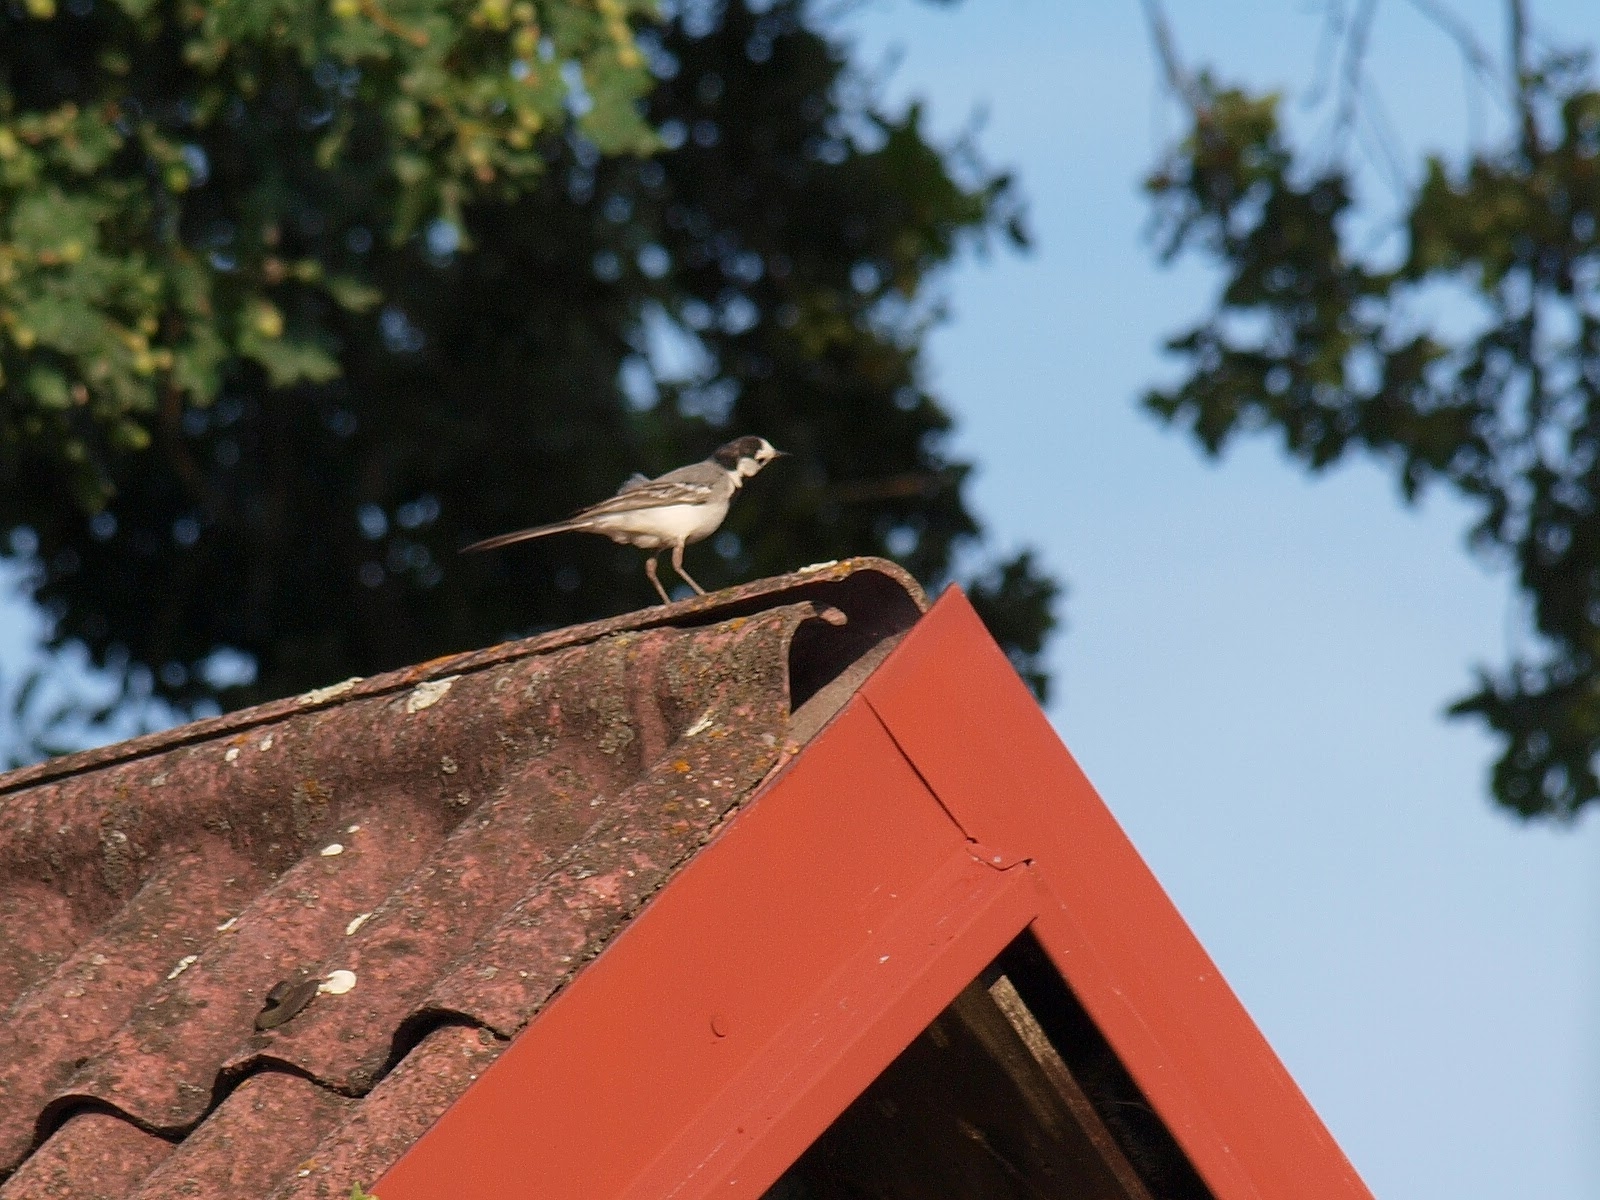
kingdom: Animalia
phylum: Chordata
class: Aves
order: Passeriformes
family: Motacillidae
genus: Motacilla
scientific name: Motacilla alba
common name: White wagtail
